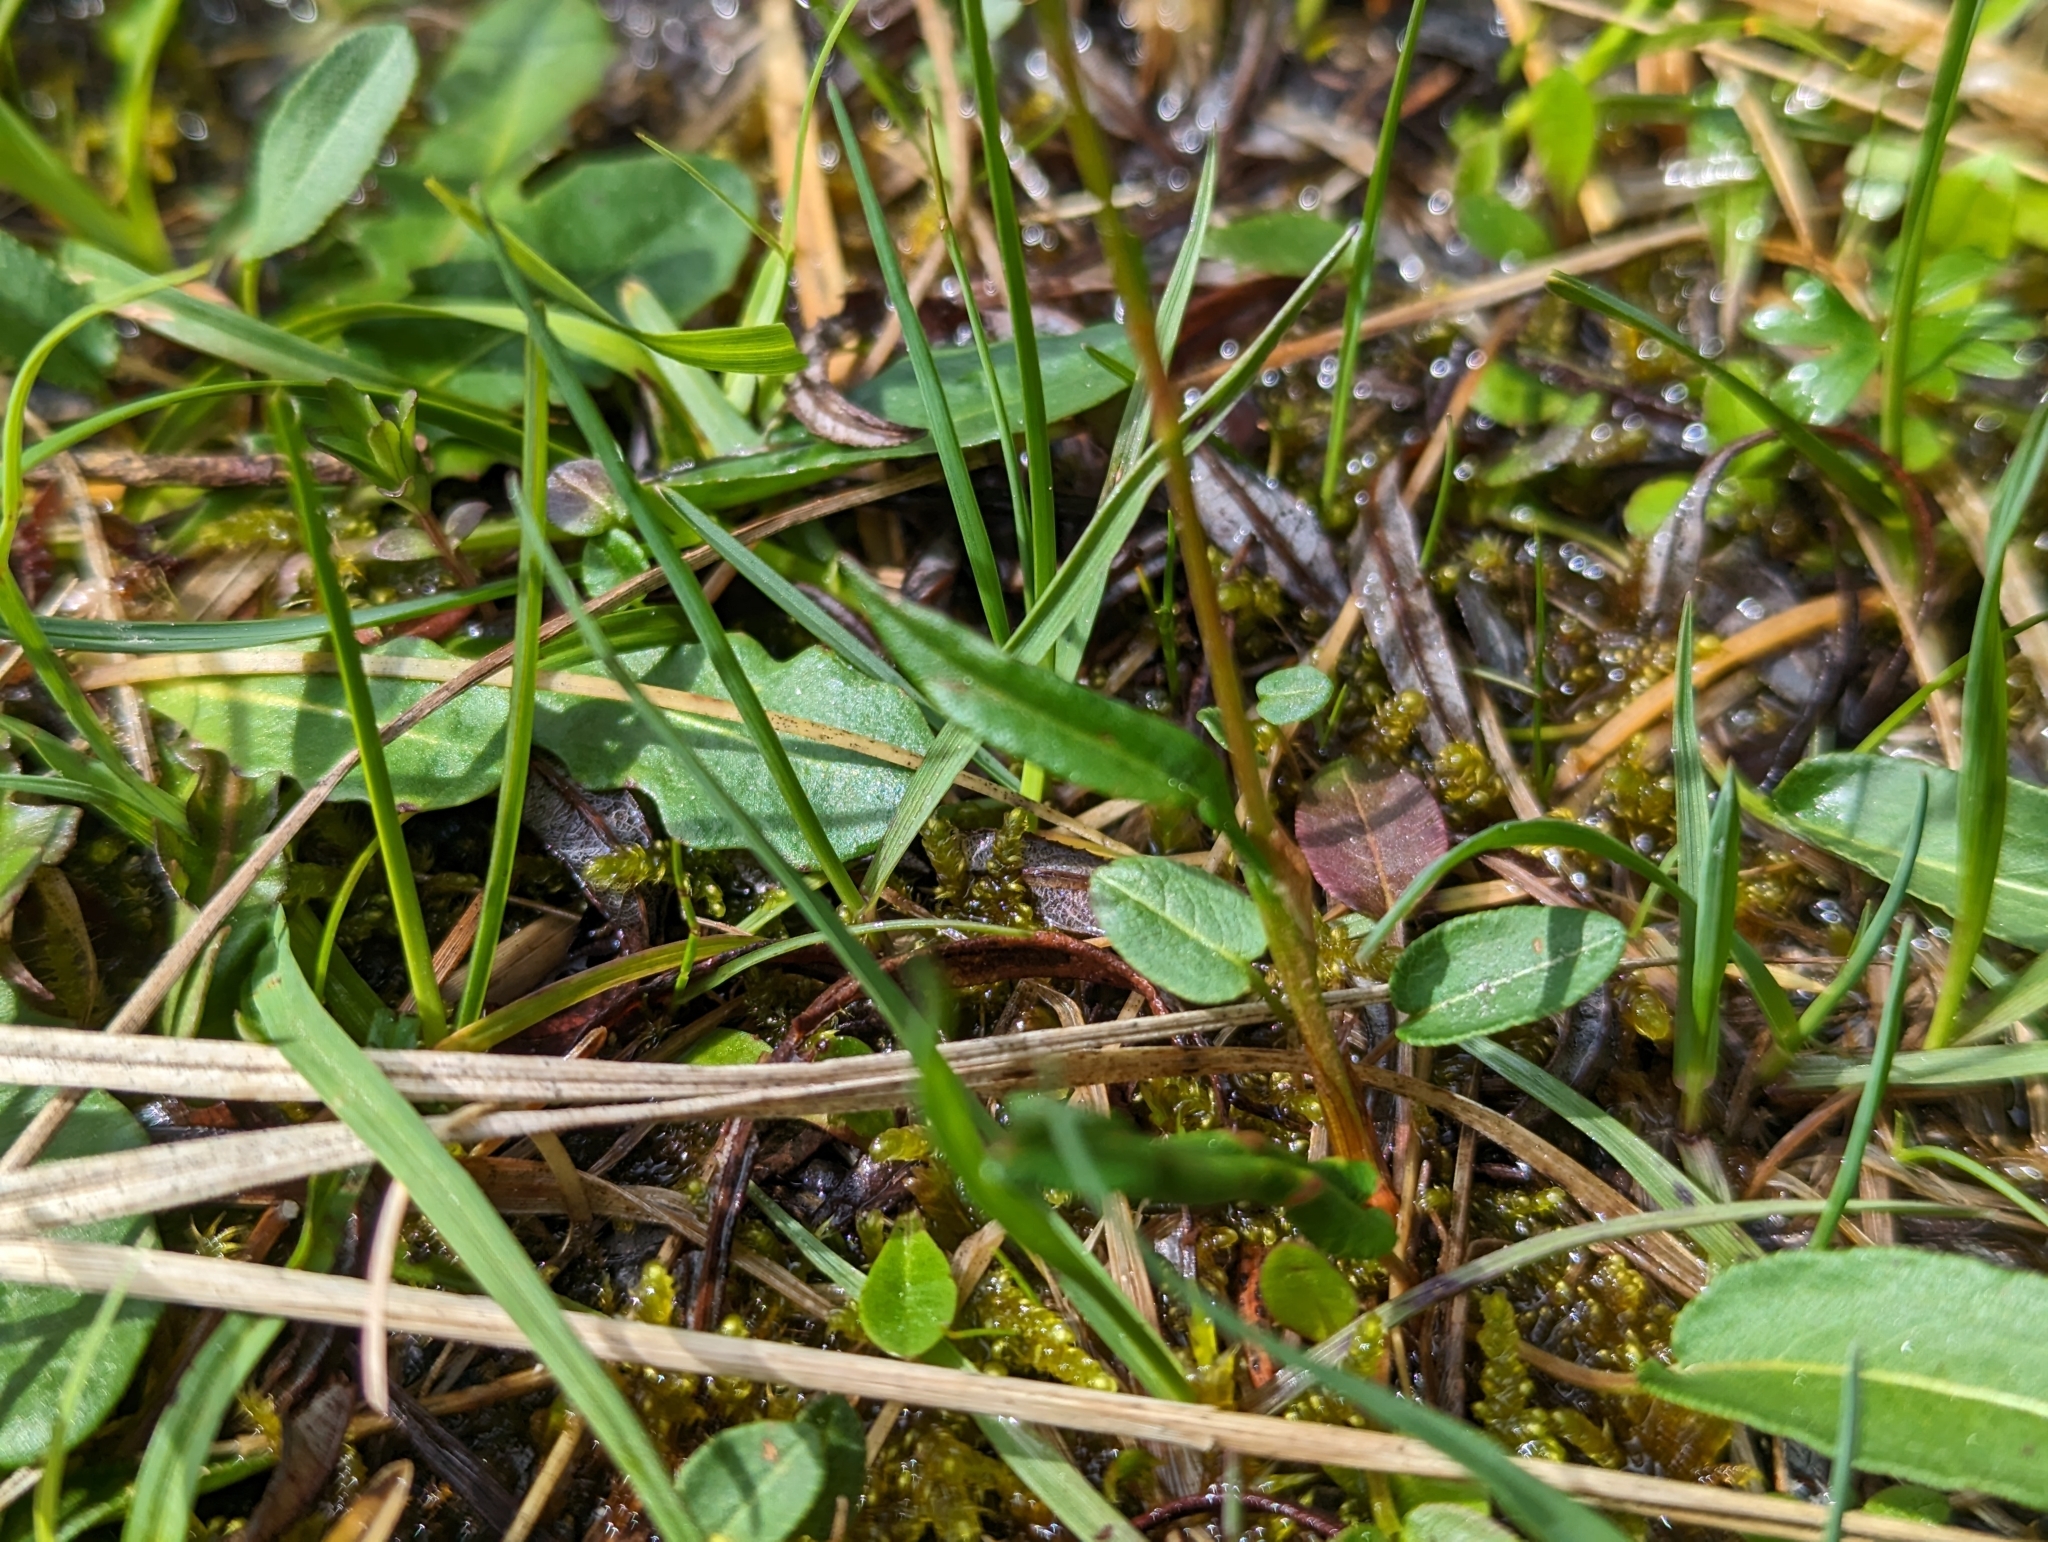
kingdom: Plantae
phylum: Tracheophyta
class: Magnoliopsida
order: Caryophyllales
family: Polygonaceae
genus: Bistorta
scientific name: Bistorta vivipara
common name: Alpine bistort
